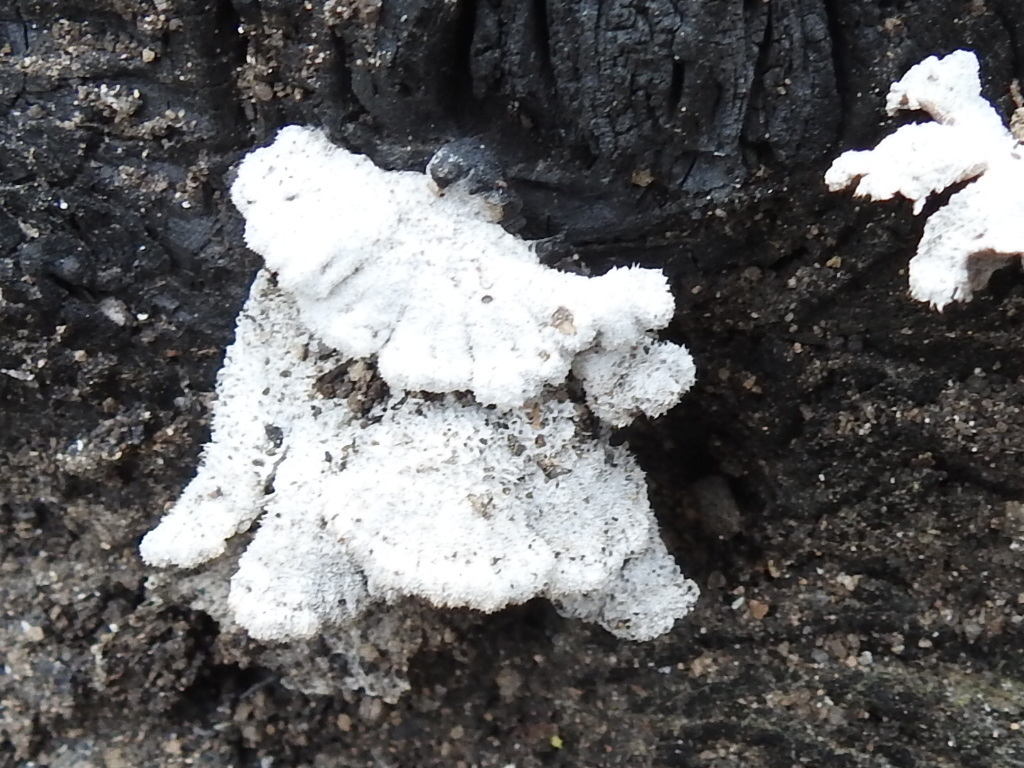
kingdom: Fungi
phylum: Basidiomycota
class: Agaricomycetes
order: Agaricales
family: Schizophyllaceae
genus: Schizophyllum
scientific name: Schizophyllum commune
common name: Common porecrust
